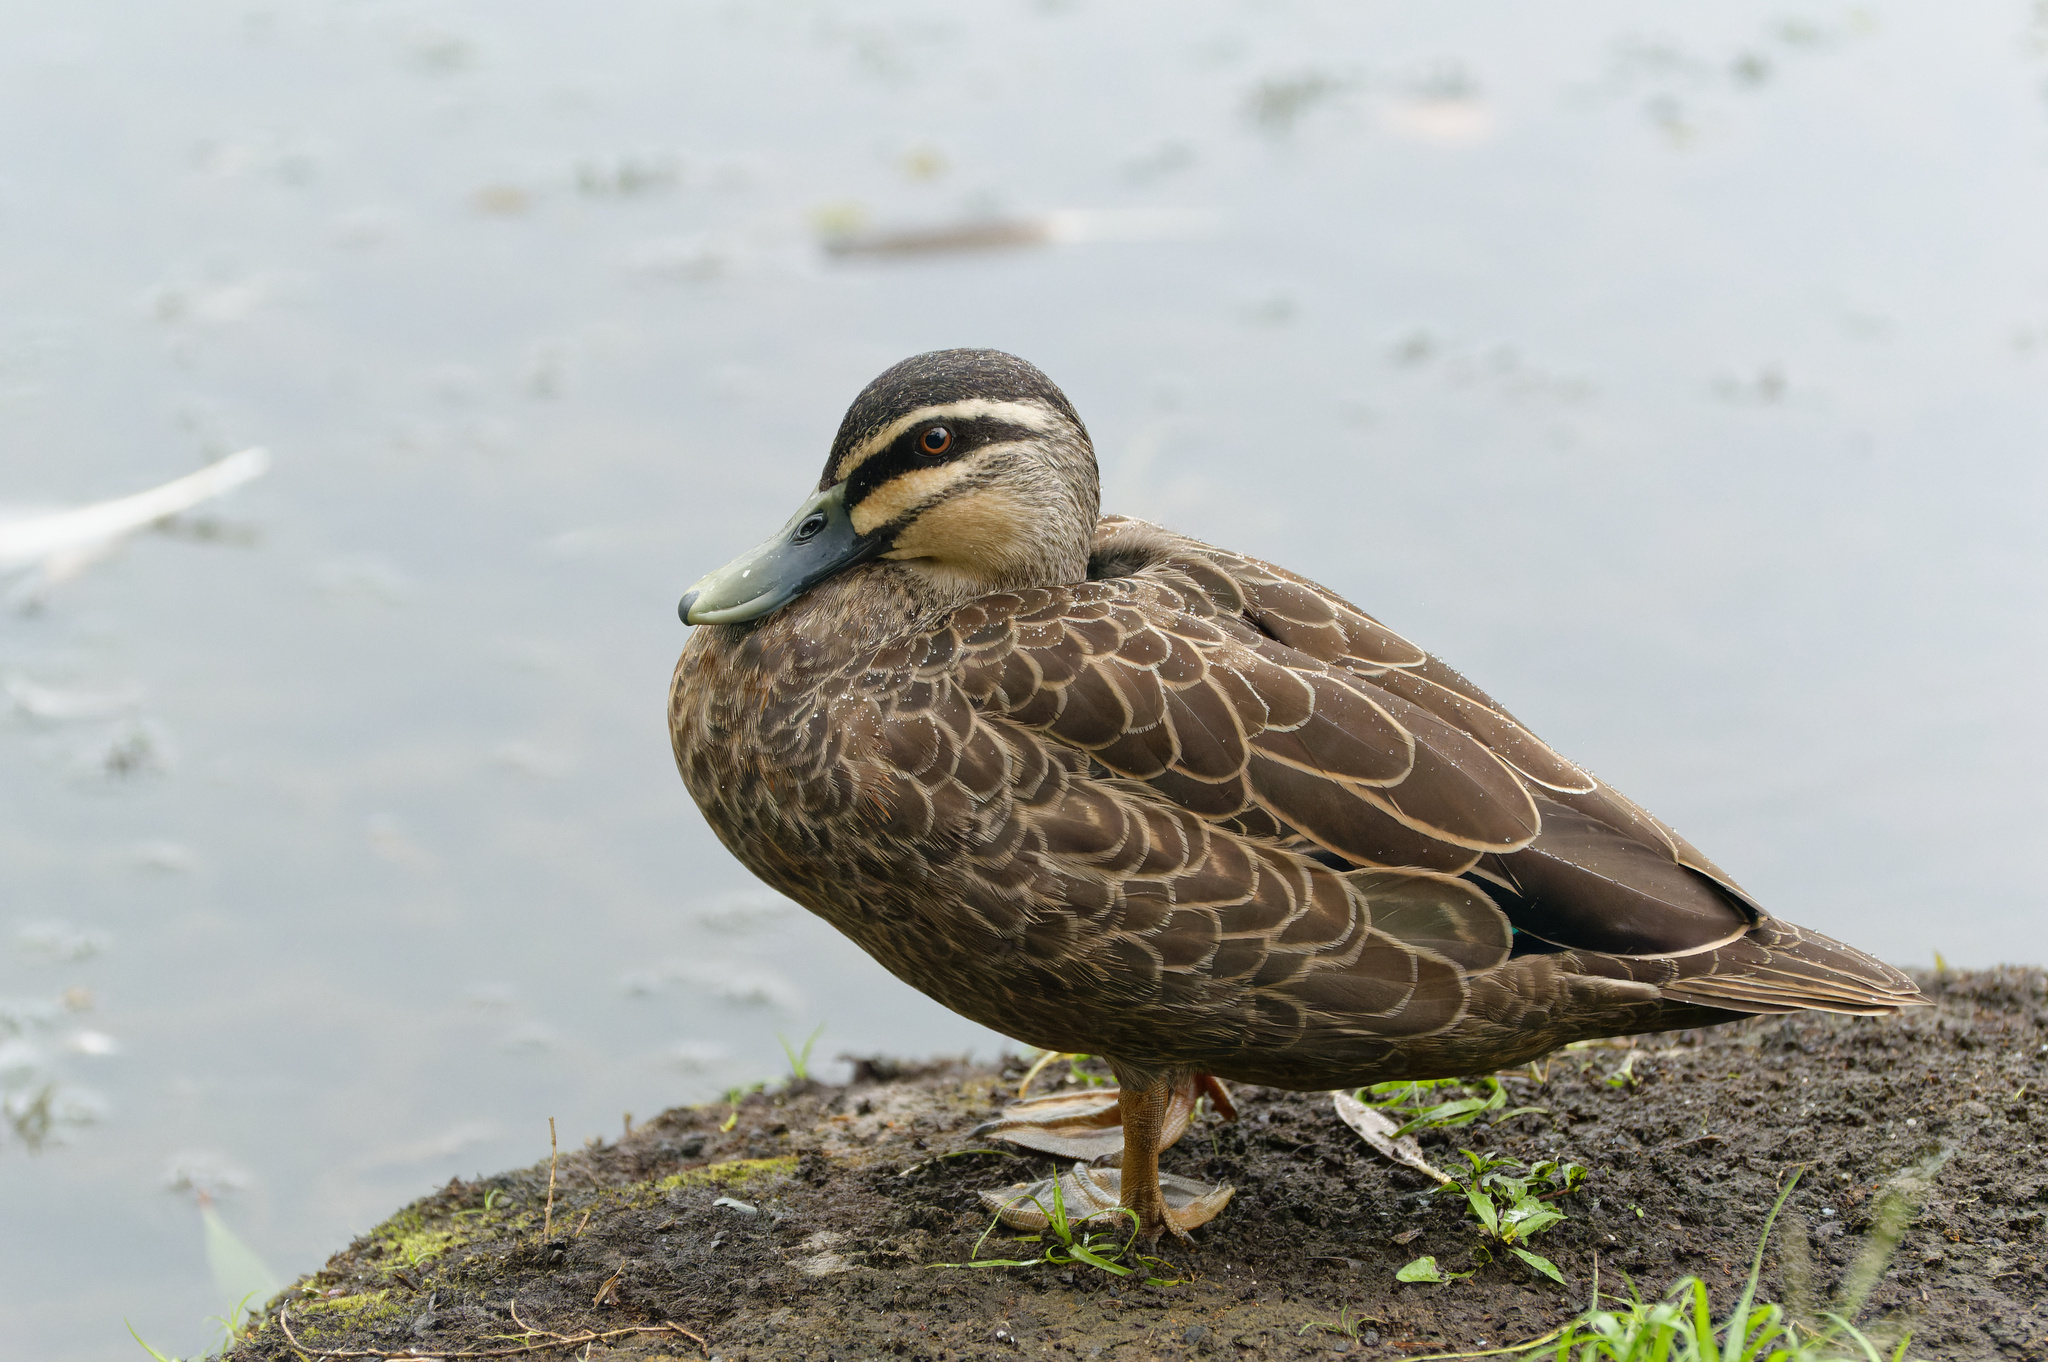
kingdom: Animalia
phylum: Chordata
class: Aves
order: Anseriformes
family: Anatidae
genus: Anas
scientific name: Anas superciliosa
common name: Pacific black duck
